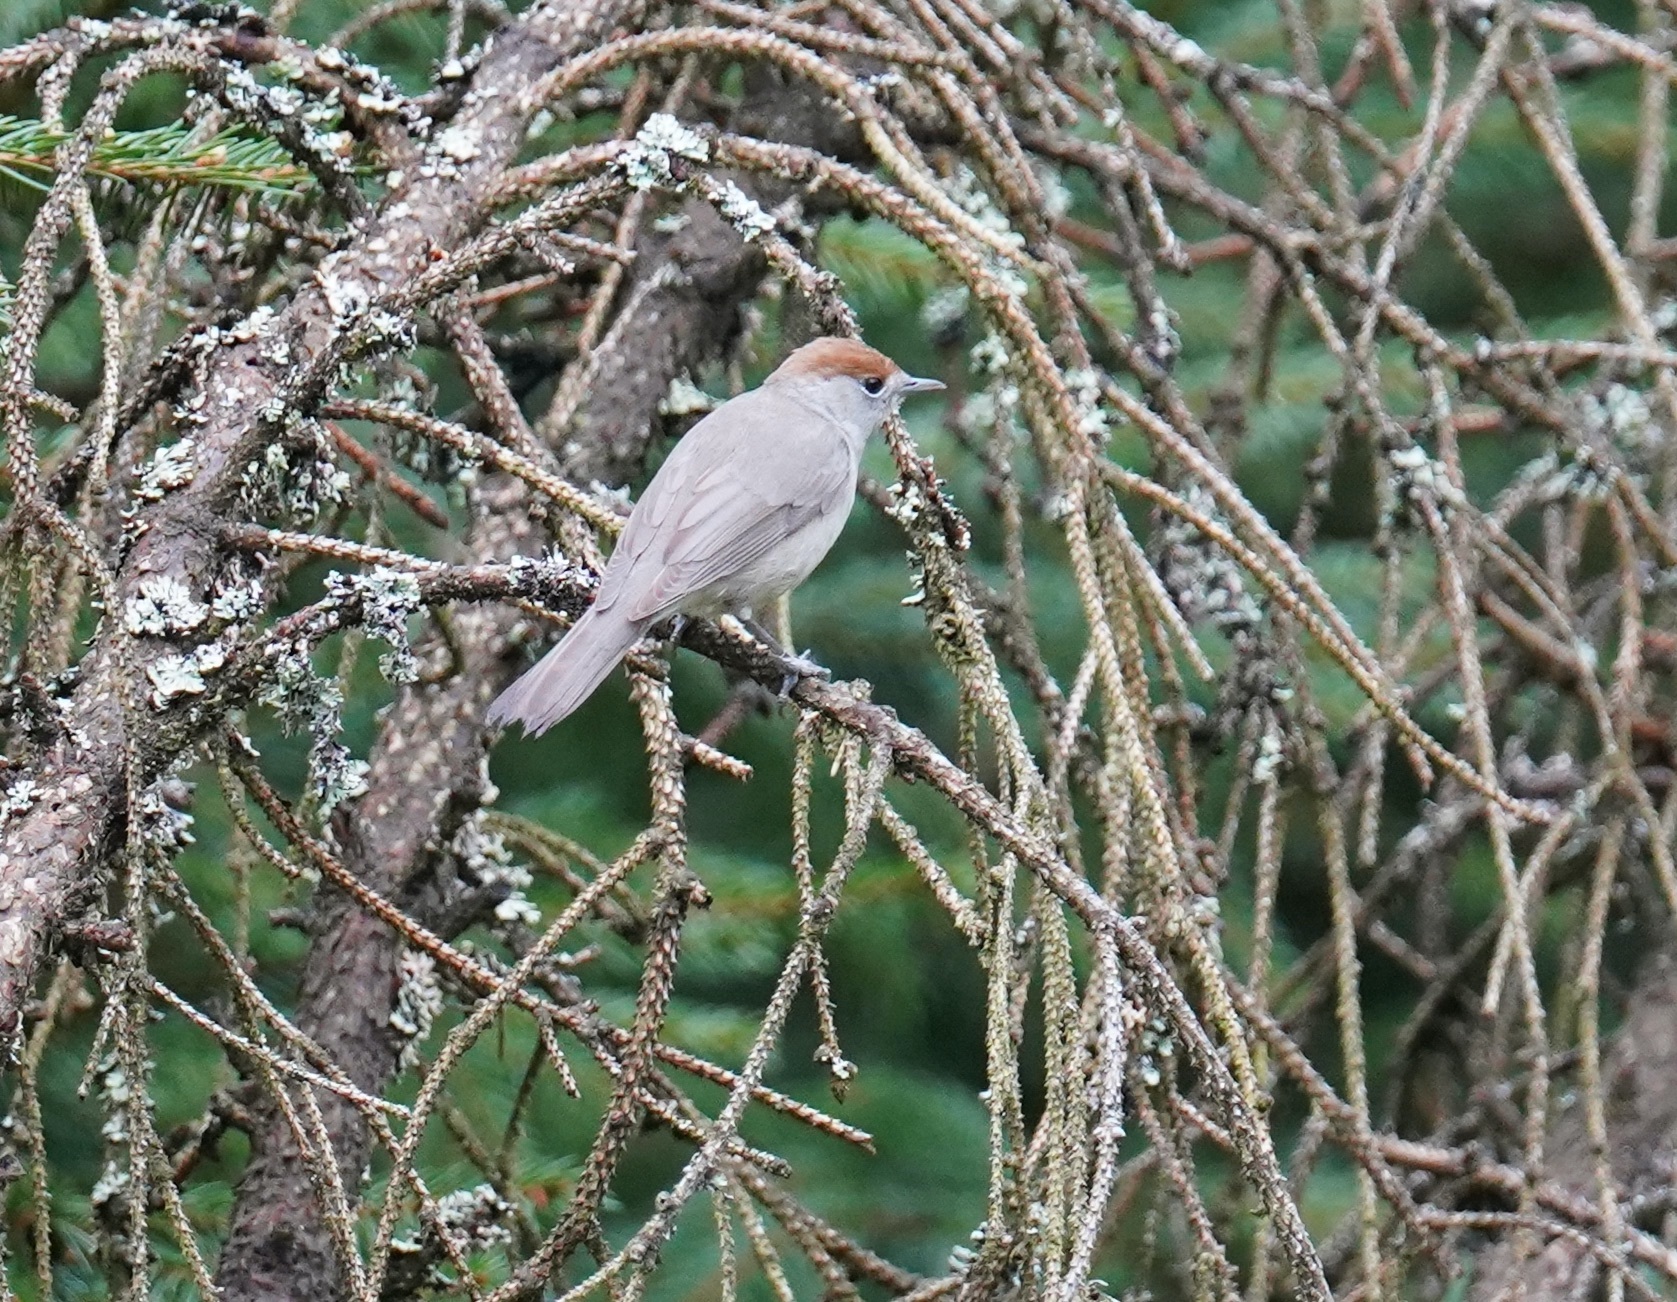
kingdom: Animalia
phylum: Chordata
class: Aves
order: Passeriformes
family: Sylviidae
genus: Sylvia
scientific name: Sylvia atricapilla
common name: Eurasian blackcap
